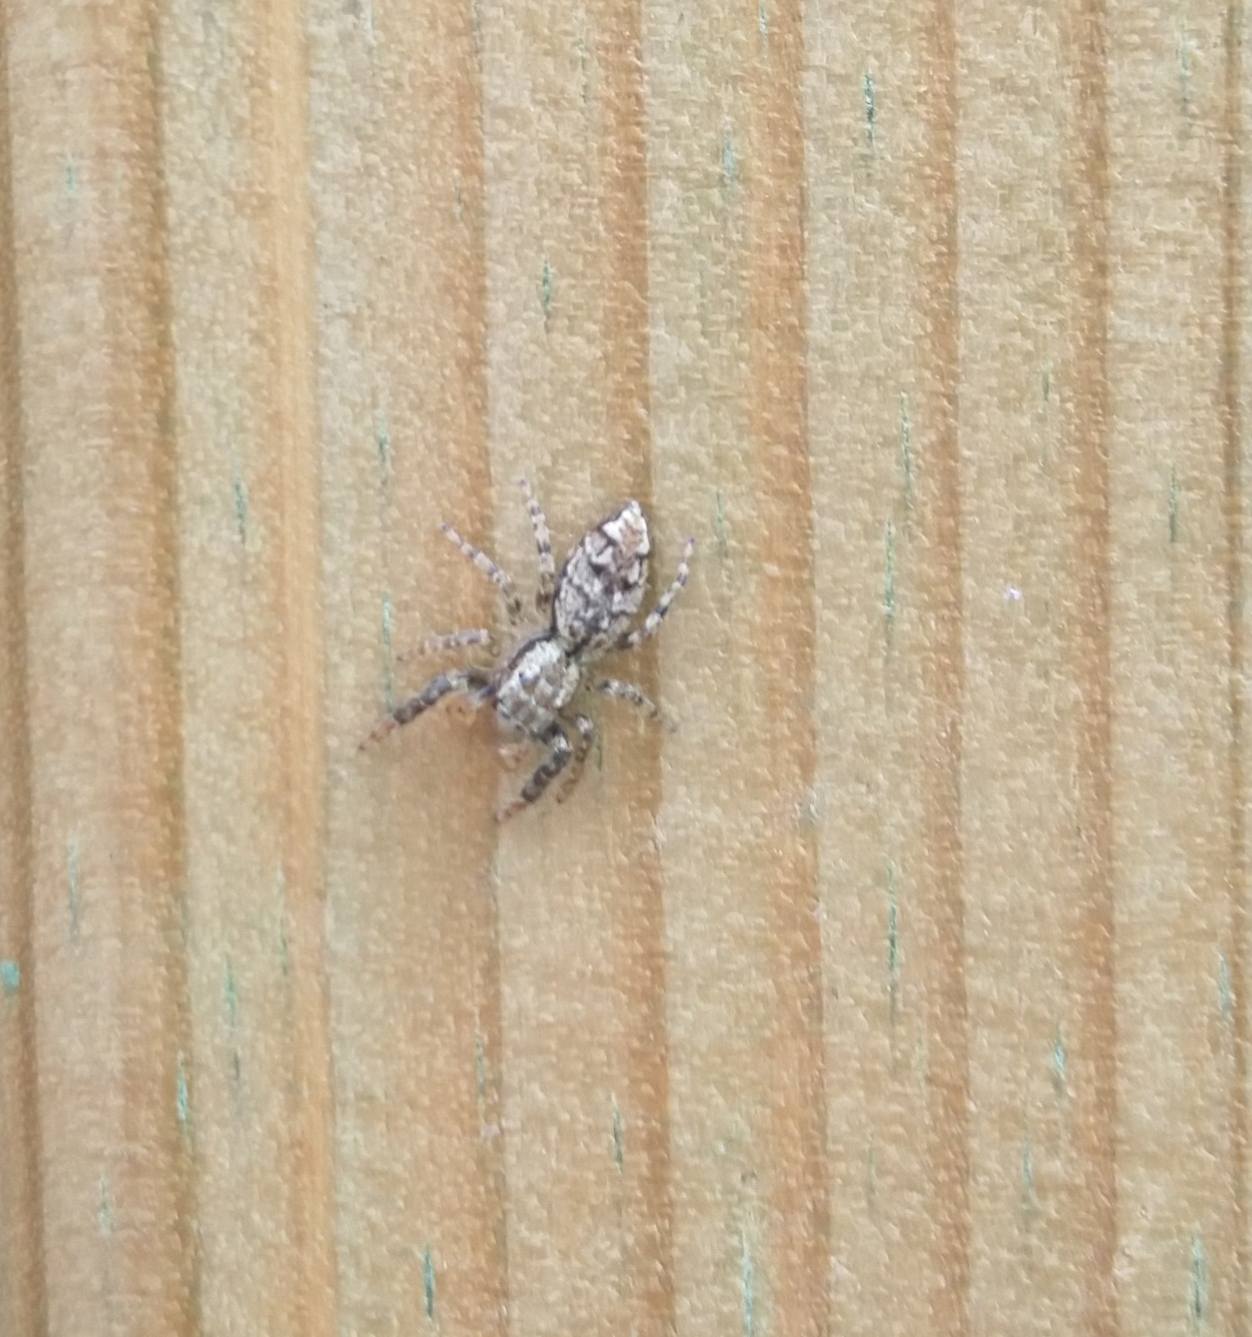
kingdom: Animalia
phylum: Arthropoda
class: Arachnida
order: Araneae
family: Salticidae
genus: Marpissa
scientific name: Marpissa muscosa
